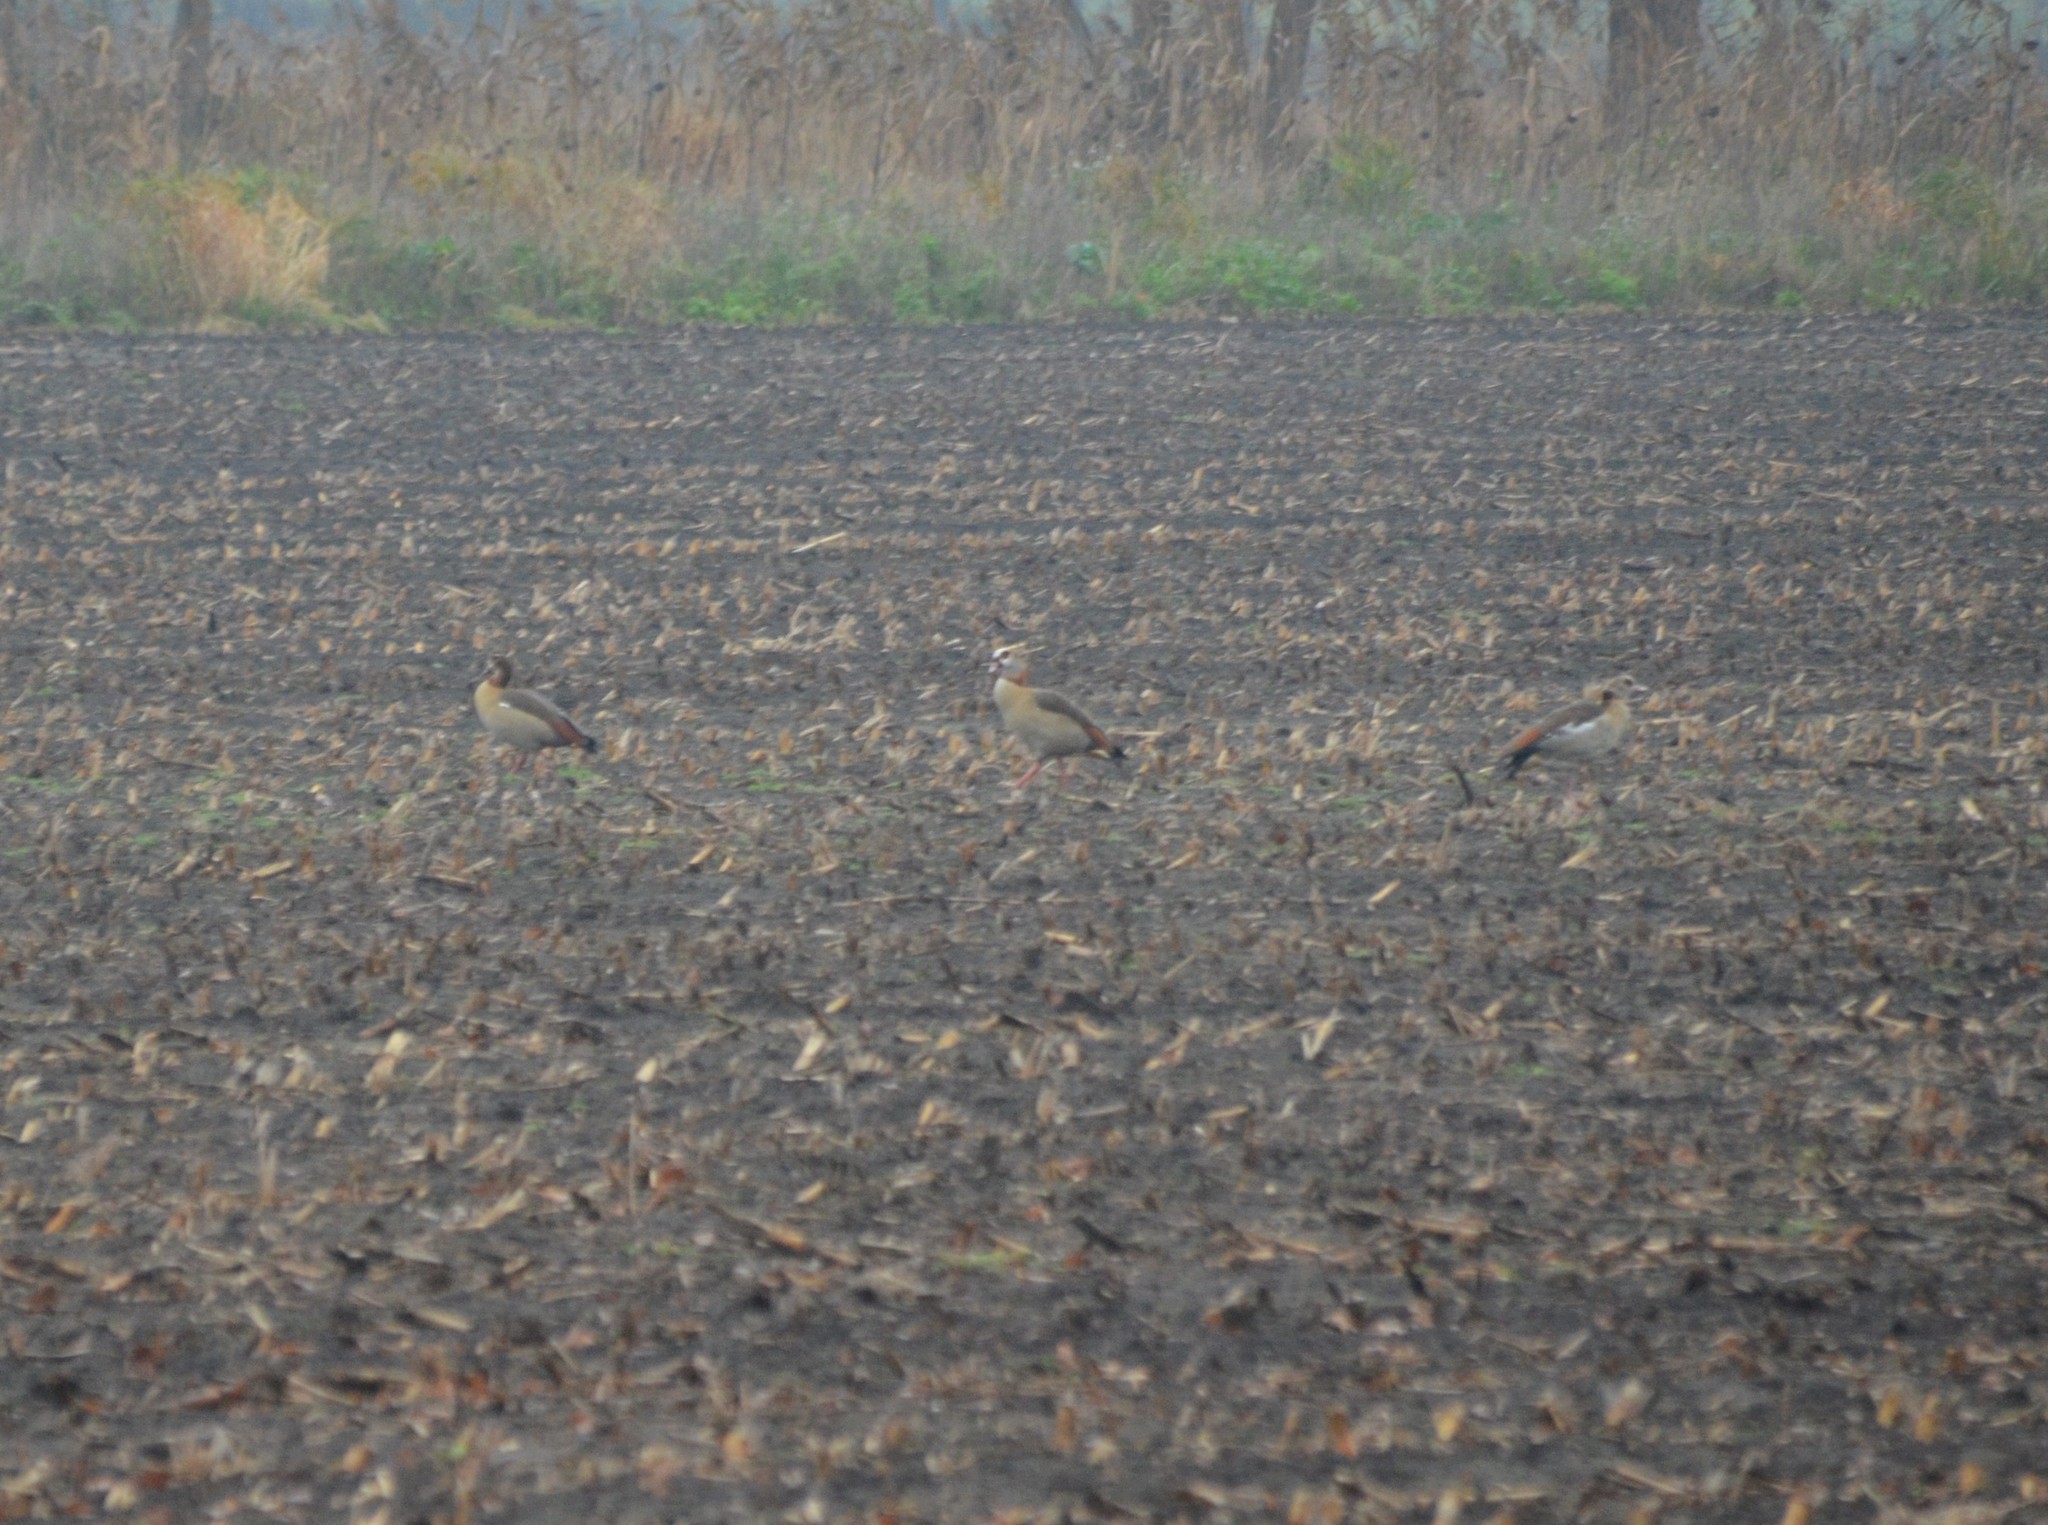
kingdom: Animalia
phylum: Chordata
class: Aves
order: Anseriformes
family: Anatidae
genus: Alopochen
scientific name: Alopochen aegyptiaca
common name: Egyptian goose
